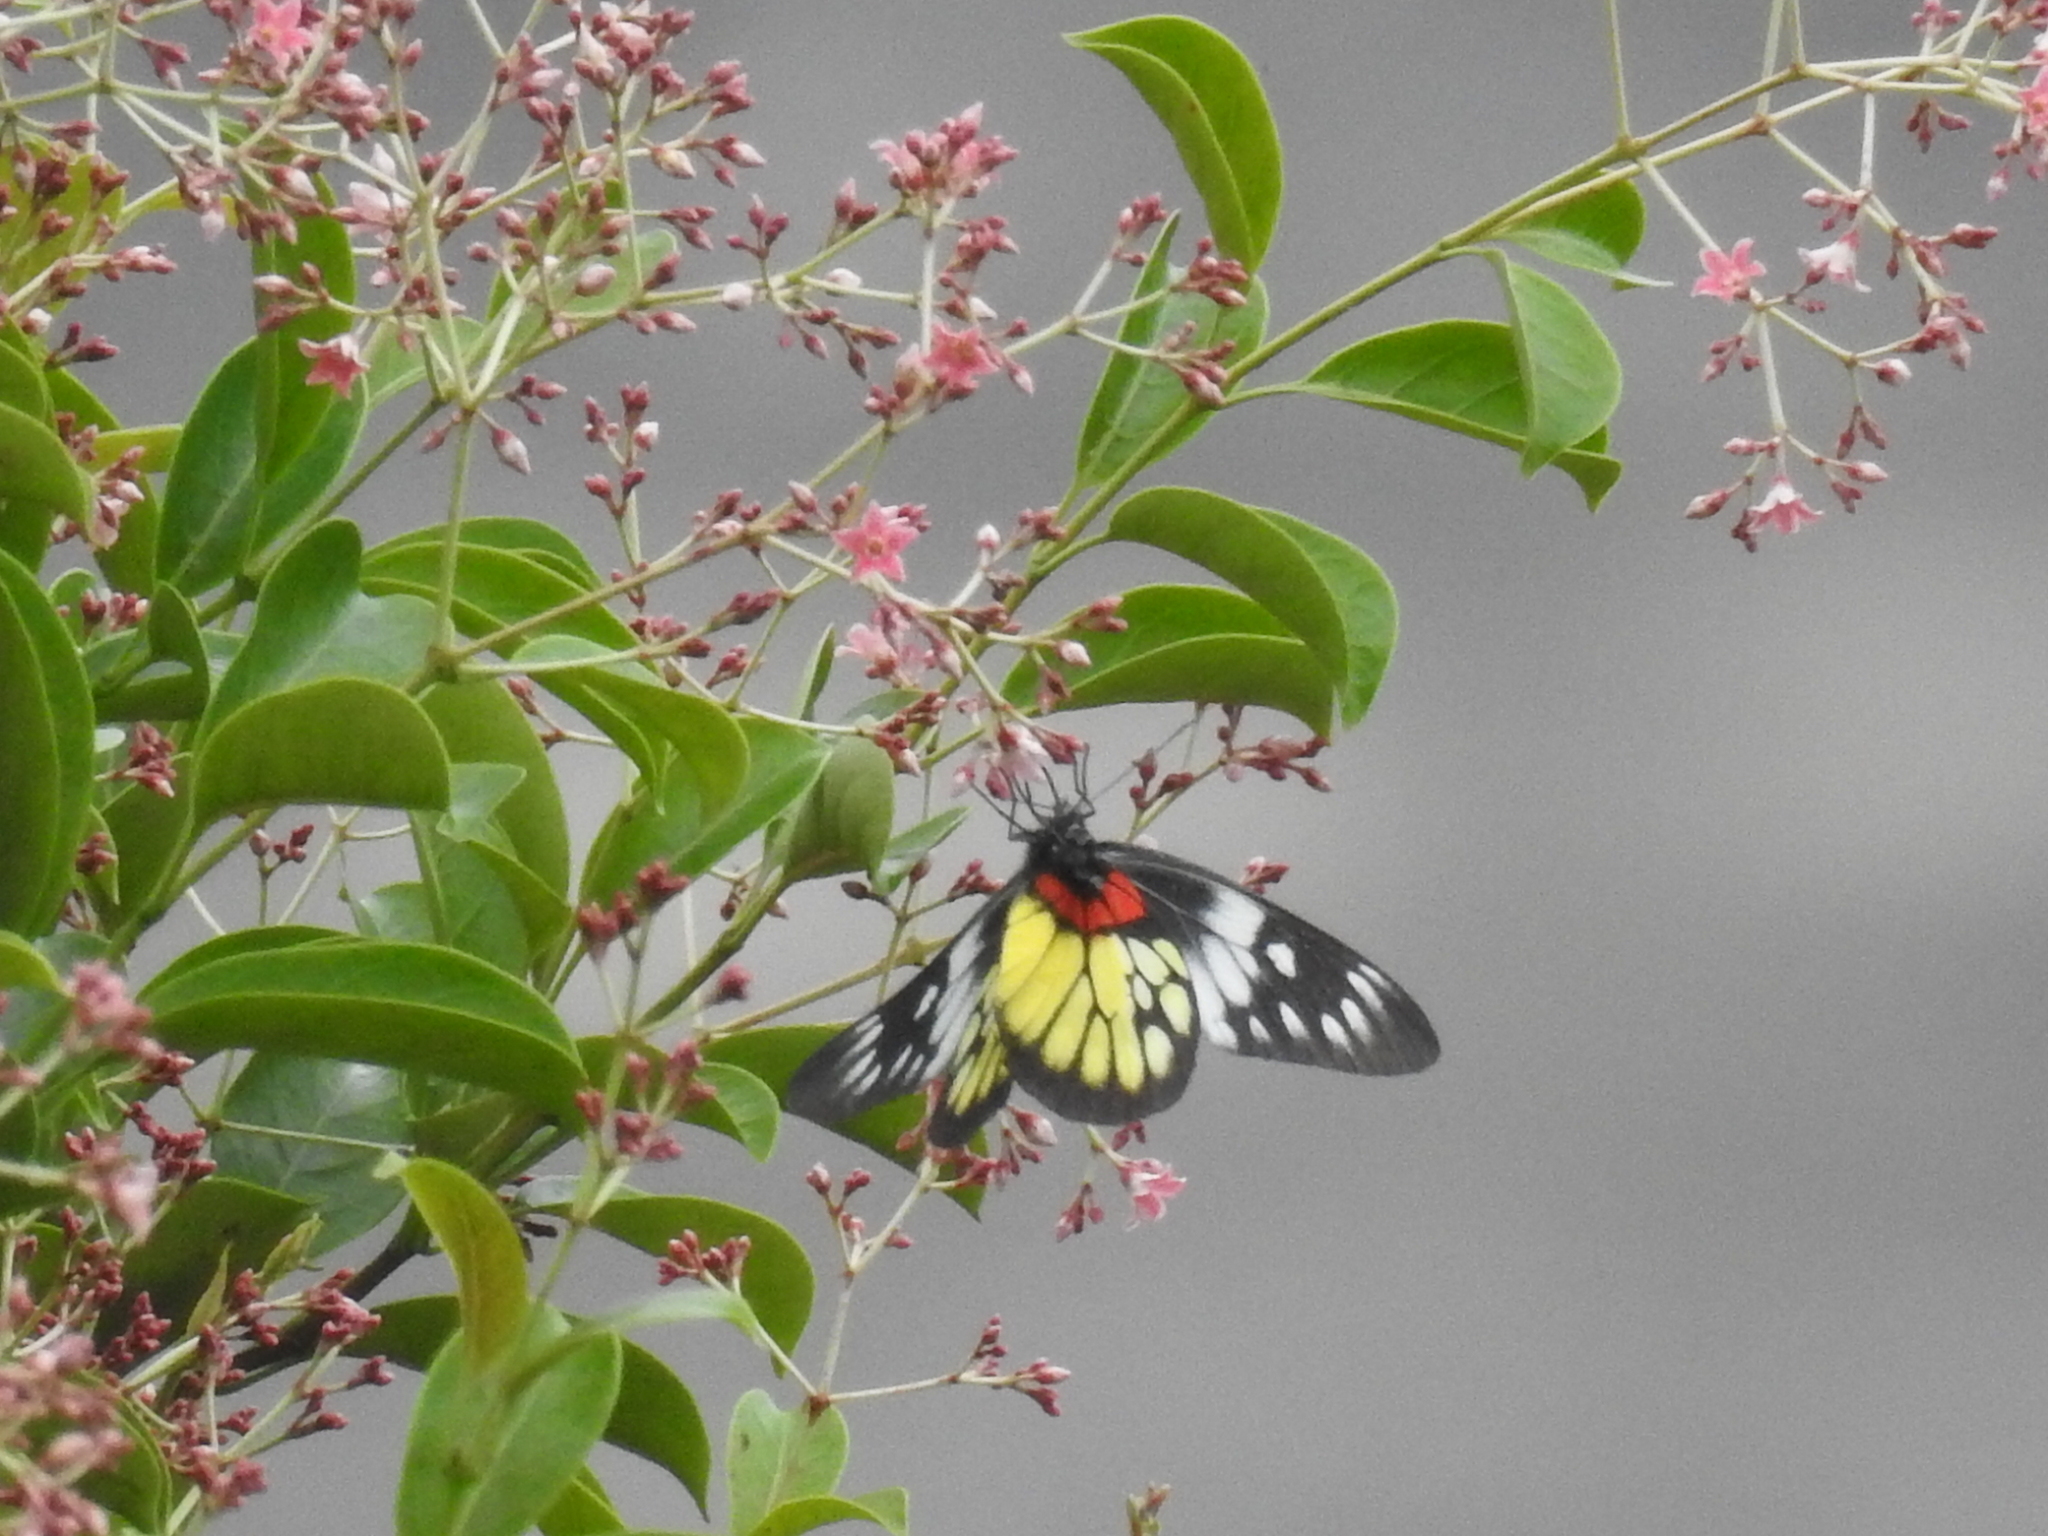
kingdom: Animalia
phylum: Arthropoda
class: Insecta
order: Lepidoptera
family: Pieridae
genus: Delias
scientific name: Delias pasithoe
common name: Red-base jezebel
